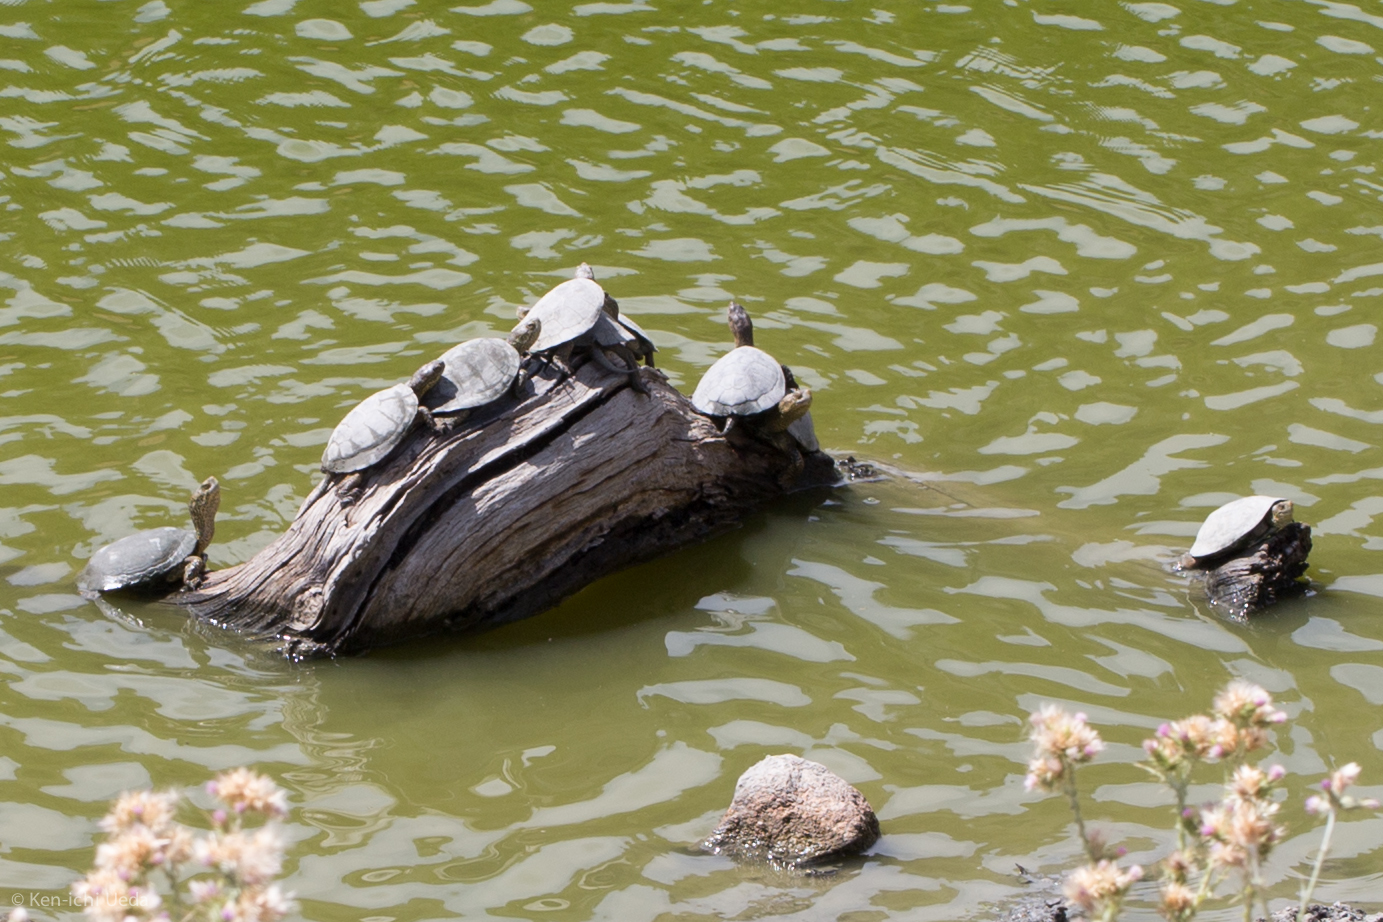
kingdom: Animalia
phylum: Chordata
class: Testudines
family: Emydidae
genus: Actinemys
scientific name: Actinemys marmorata
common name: Western pond turtle
